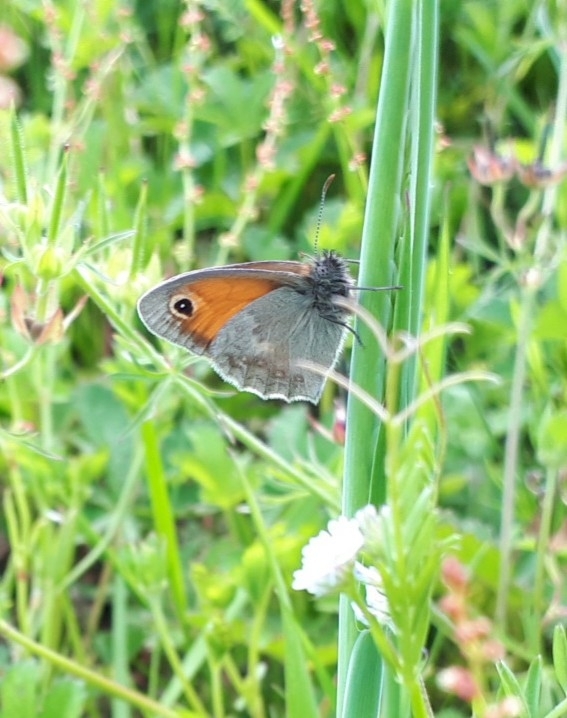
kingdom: Animalia
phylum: Arthropoda
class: Insecta
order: Lepidoptera
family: Nymphalidae
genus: Coenonympha
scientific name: Coenonympha pamphilus
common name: Small heath
